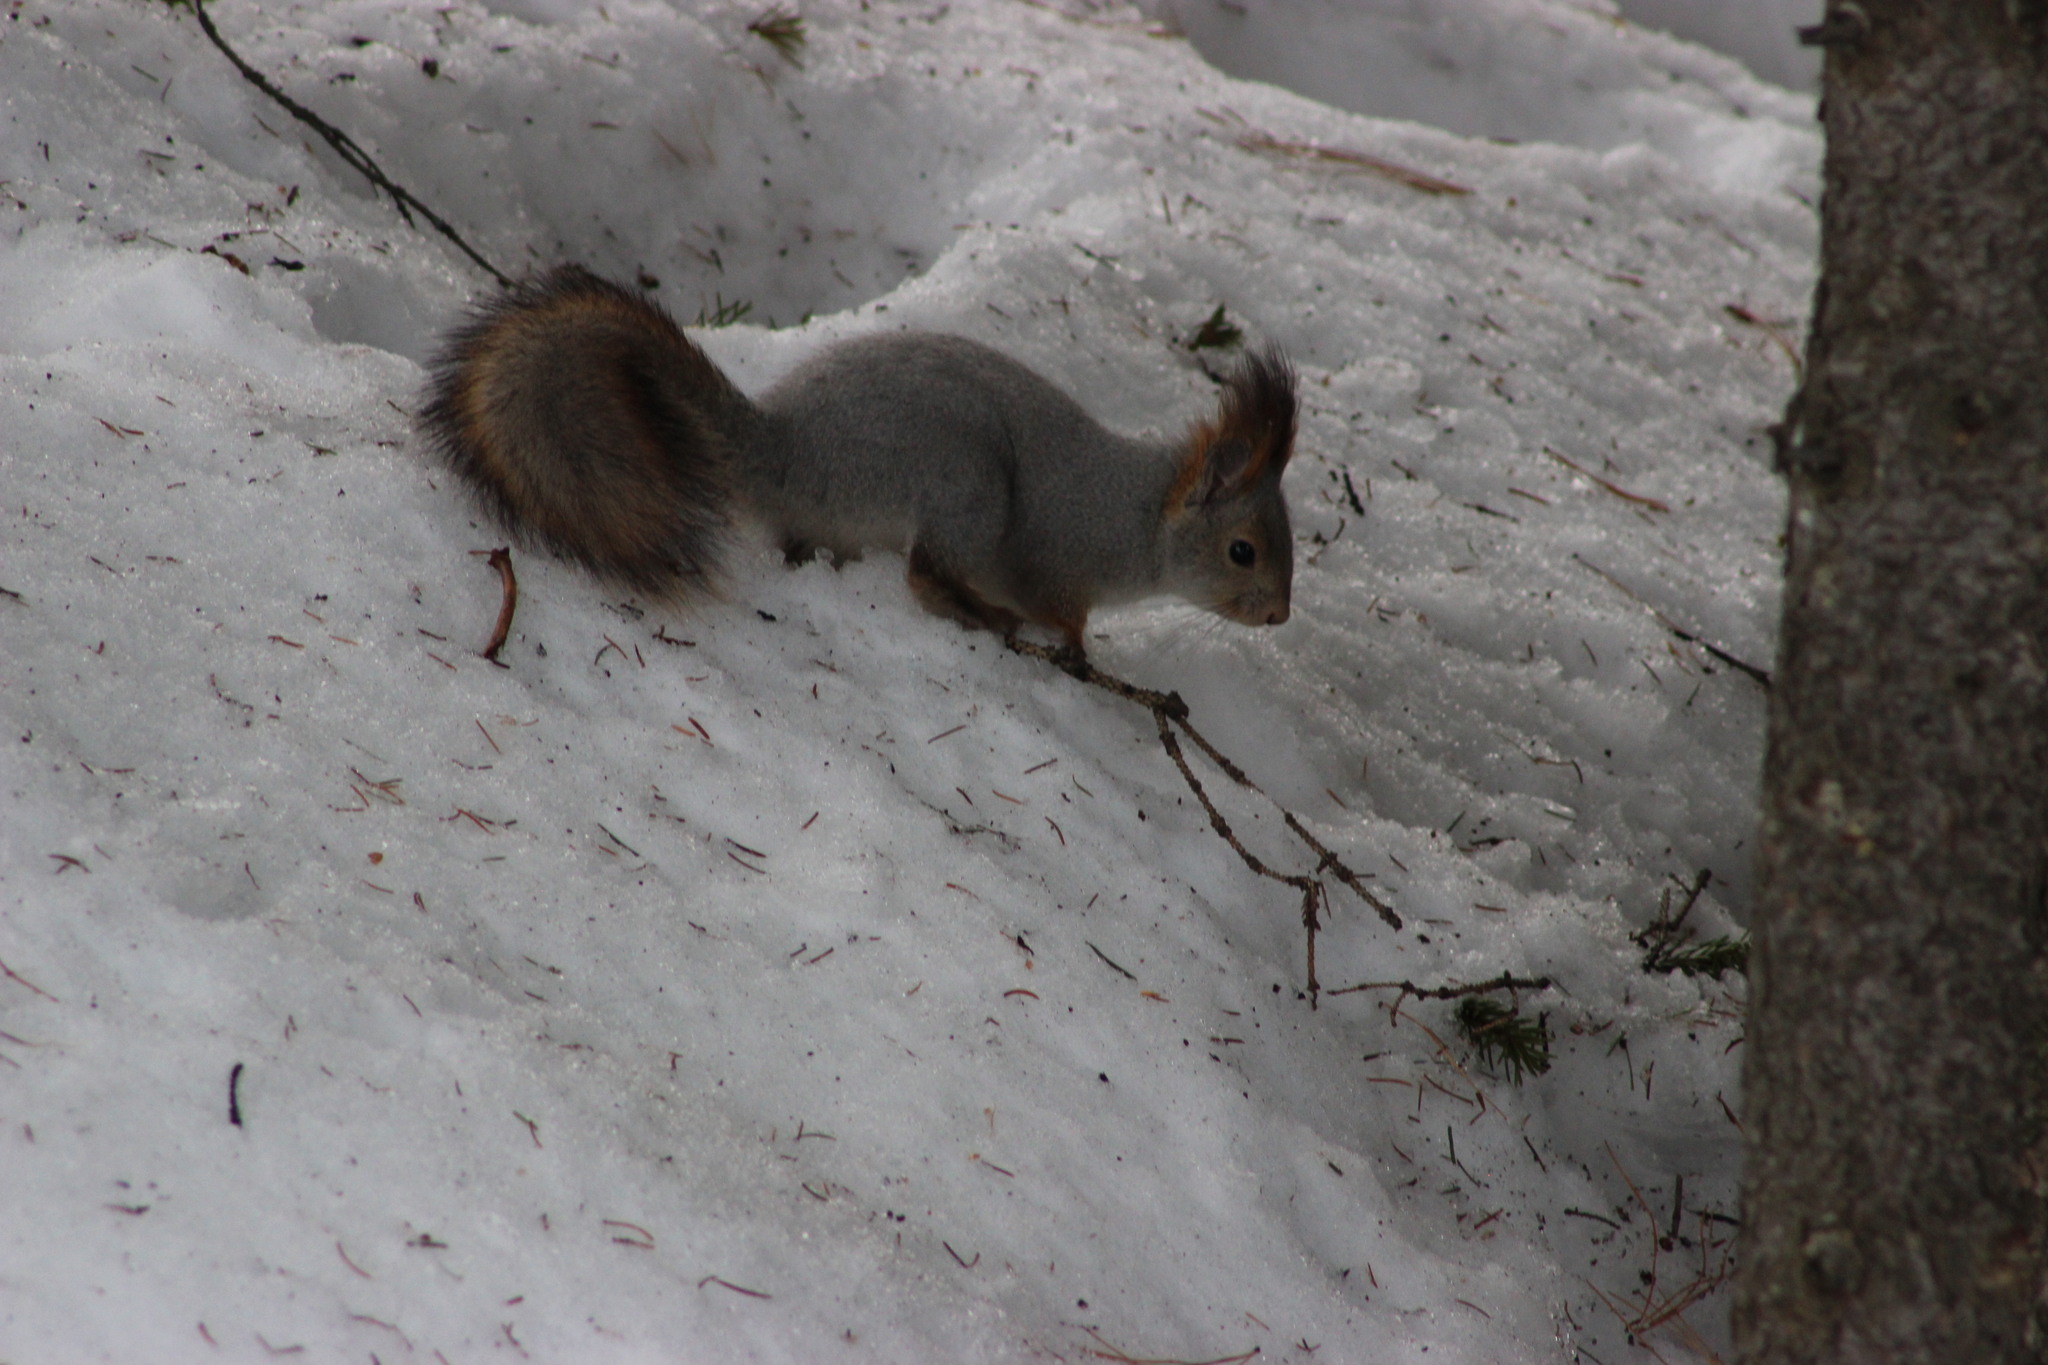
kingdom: Animalia
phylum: Chordata
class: Mammalia
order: Rodentia
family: Sciuridae
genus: Sciurus
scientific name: Sciurus vulgaris
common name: Eurasian red squirrel
